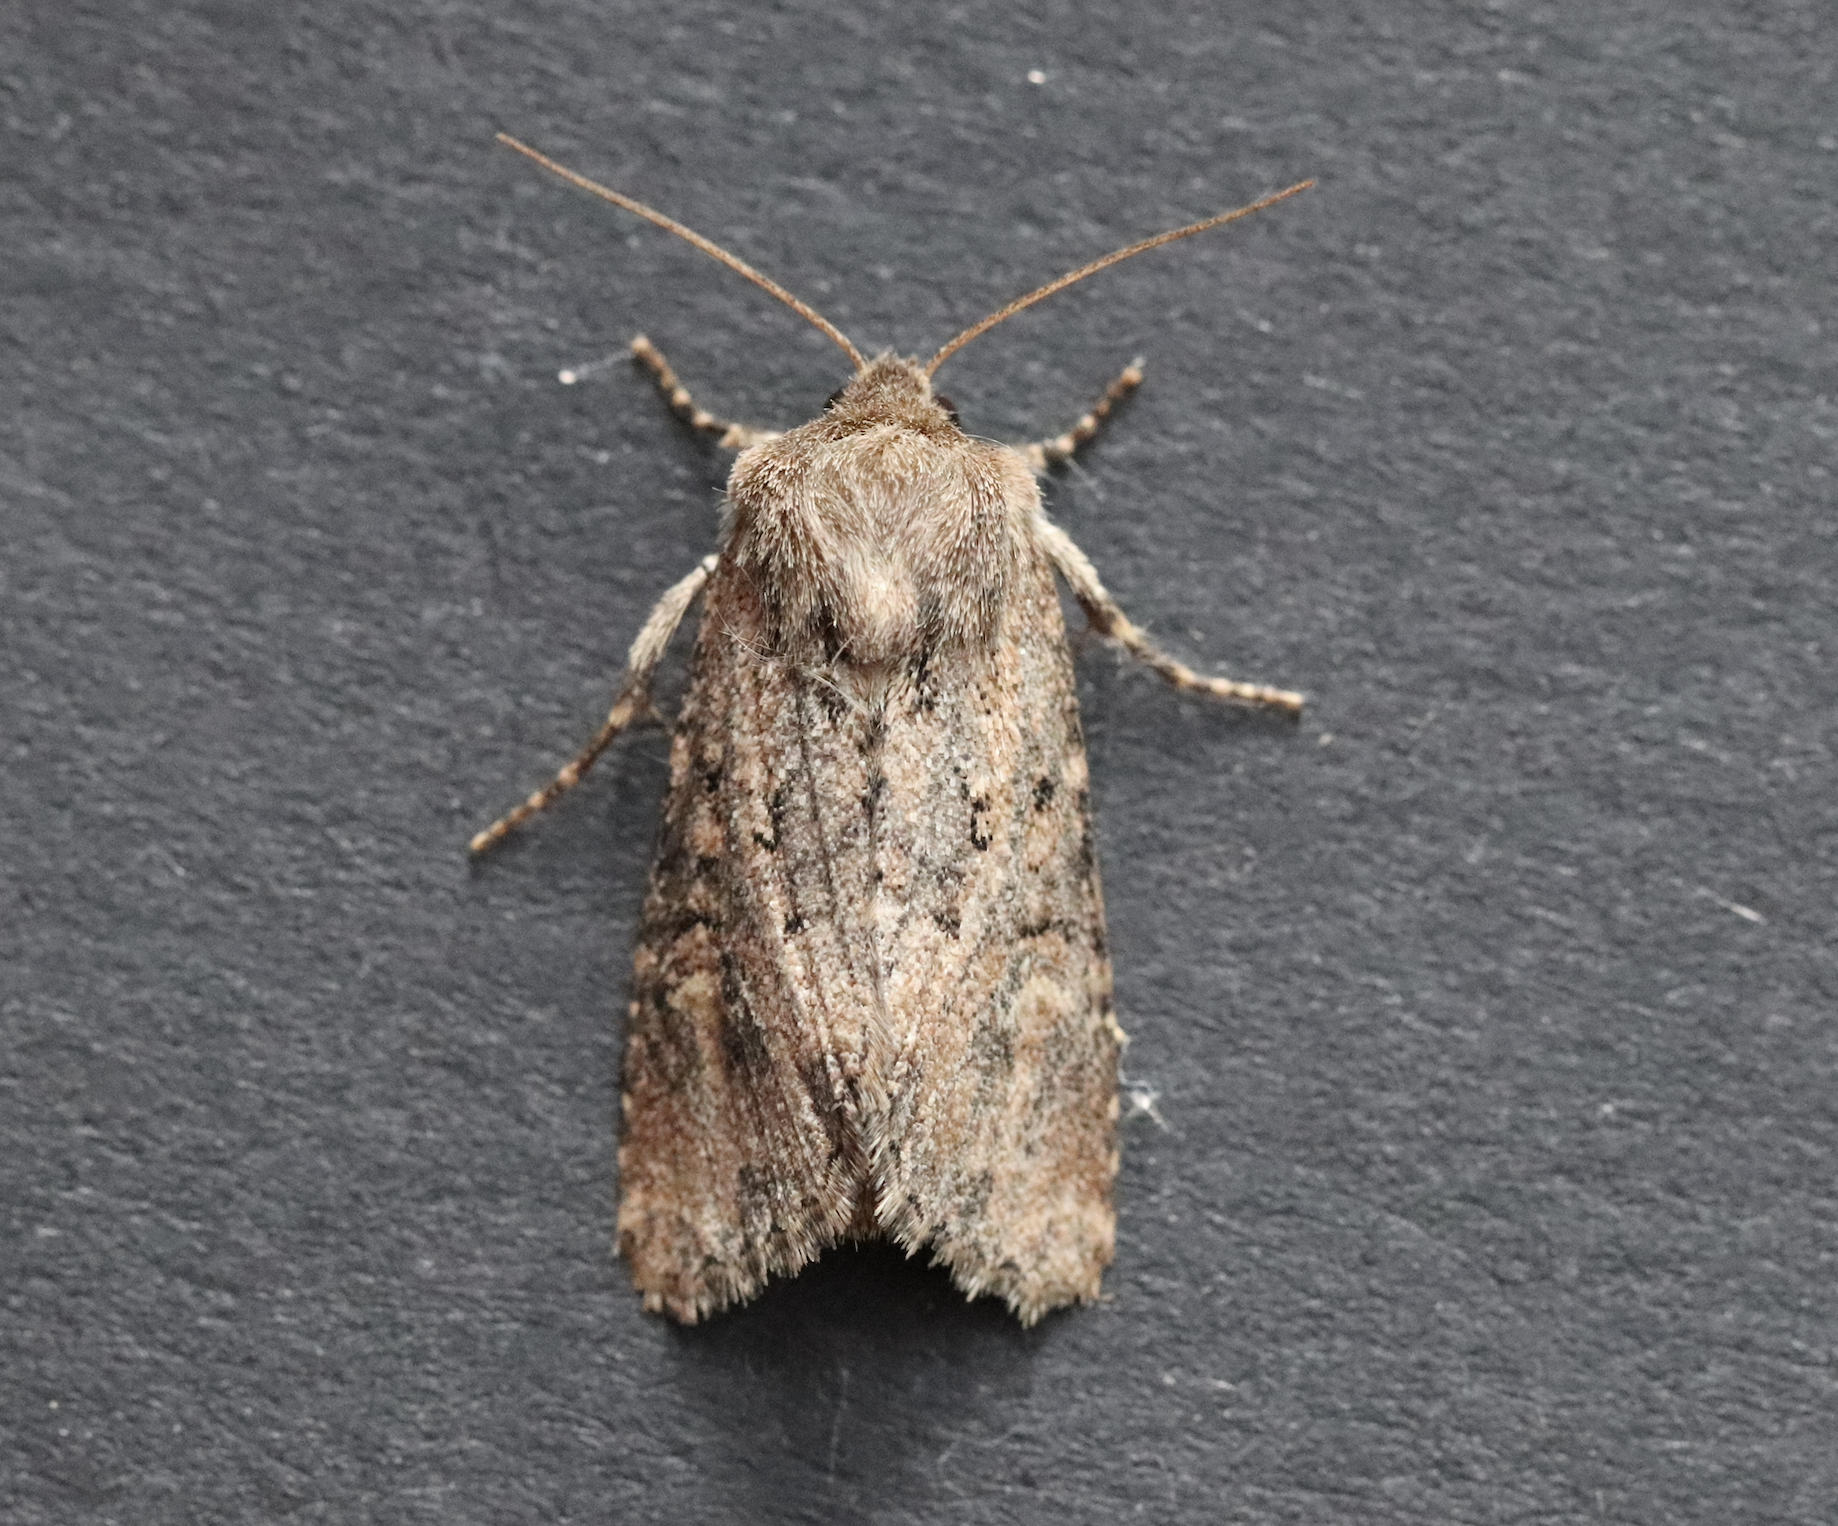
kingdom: Animalia
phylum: Arthropoda
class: Insecta
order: Lepidoptera
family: Noctuidae
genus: Luperina
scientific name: Luperina testacea
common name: Flounced rustic
